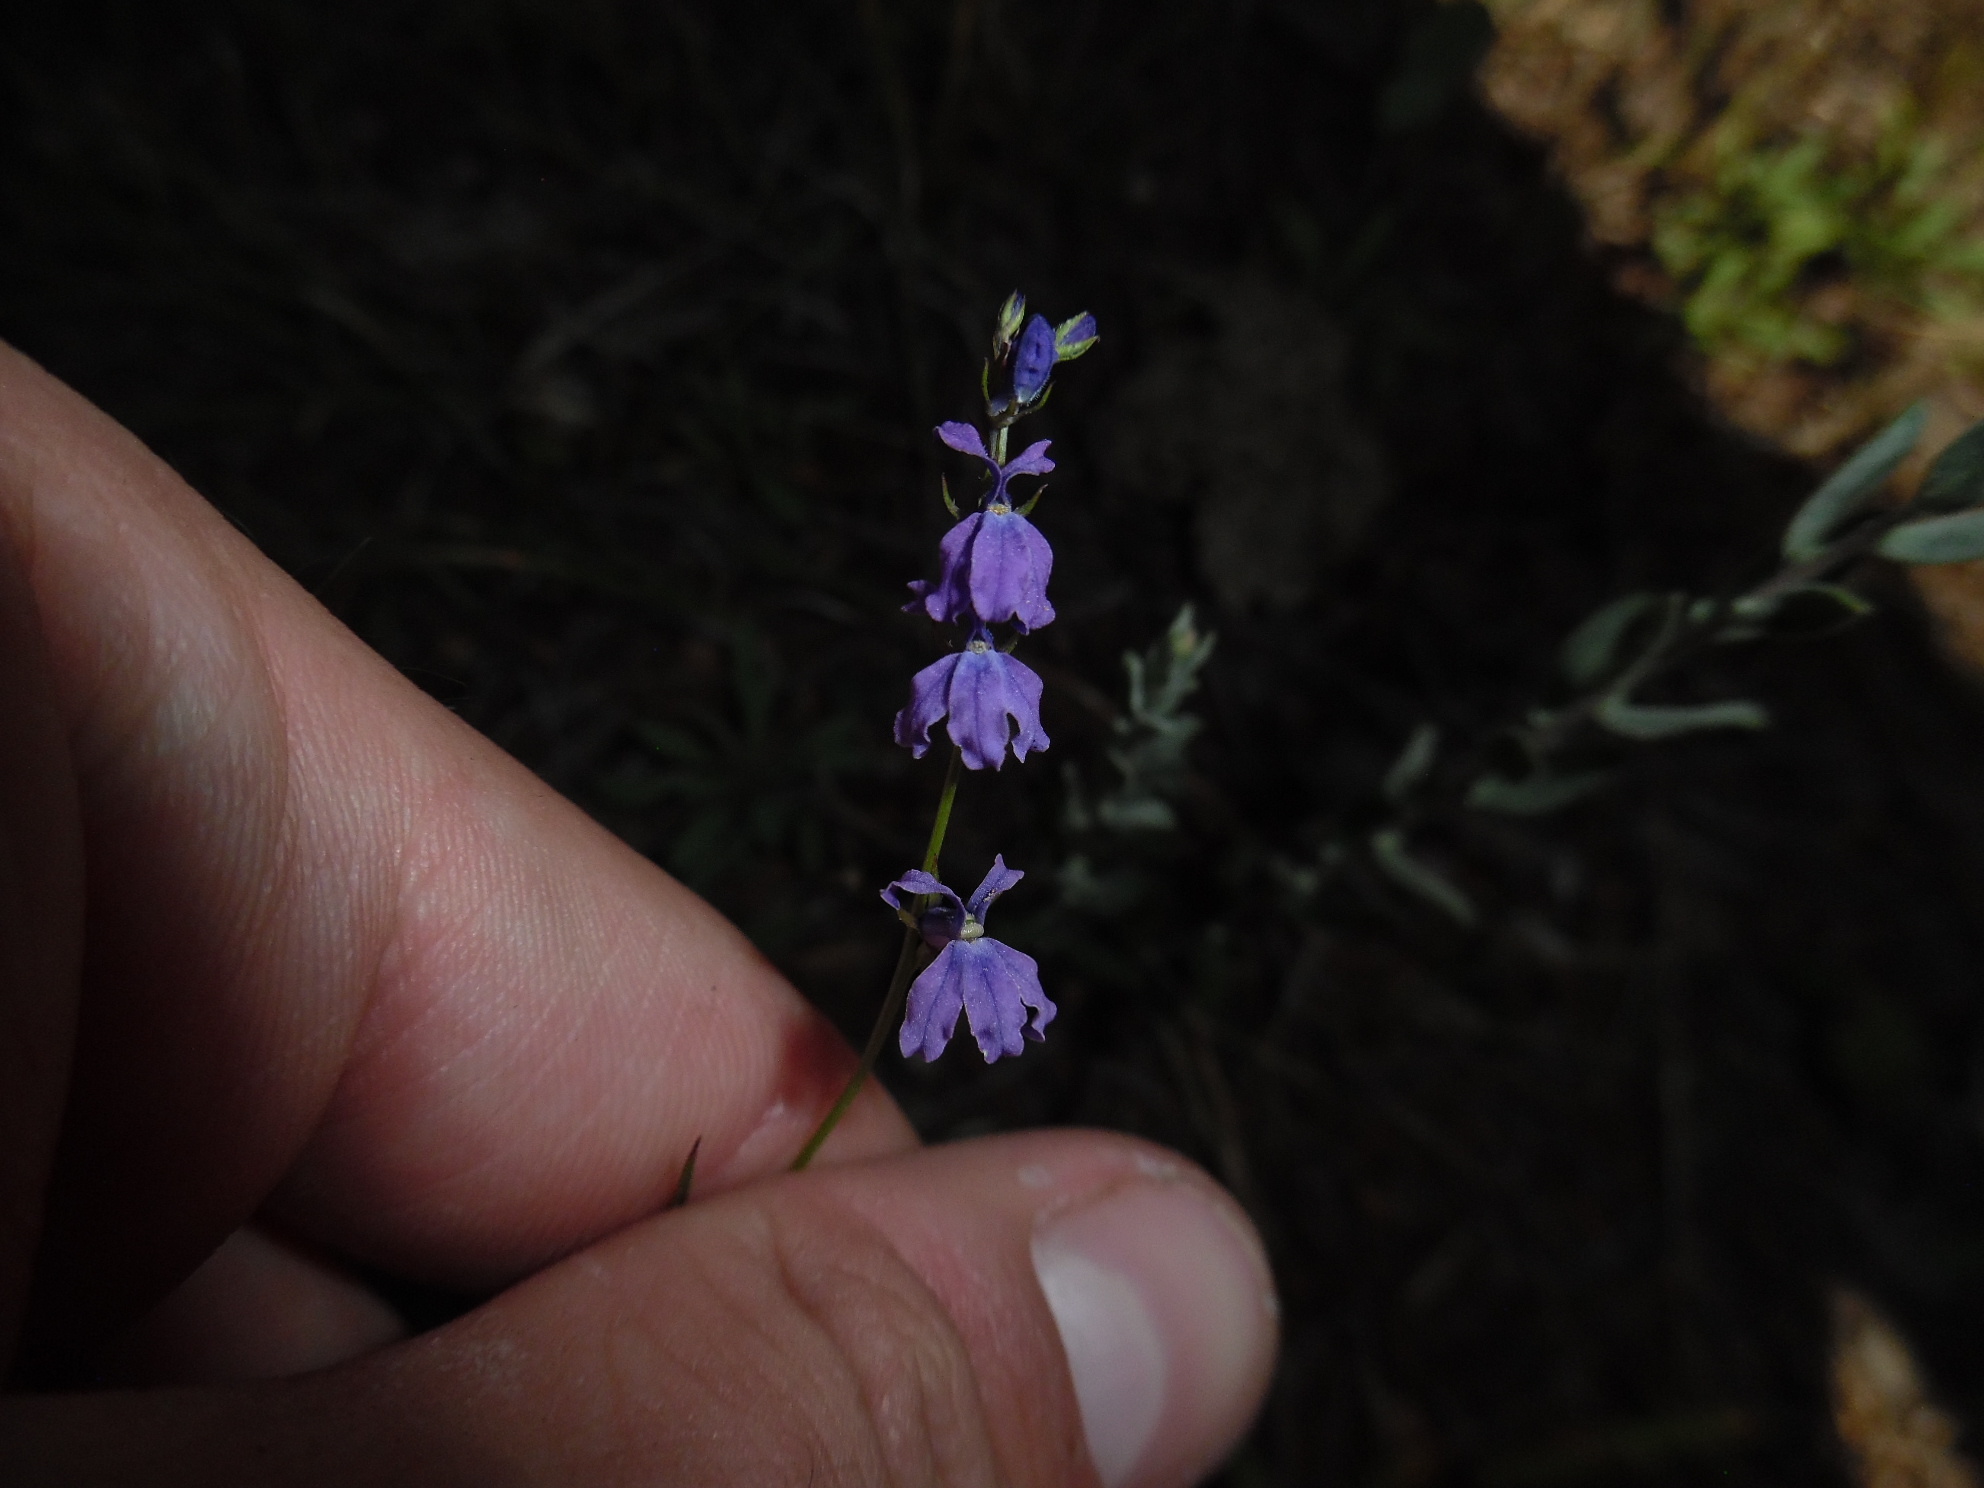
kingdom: Plantae
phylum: Tracheophyta
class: Magnoliopsida
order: Asterales
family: Campanulaceae
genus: Lobelia
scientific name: Lobelia poetica
